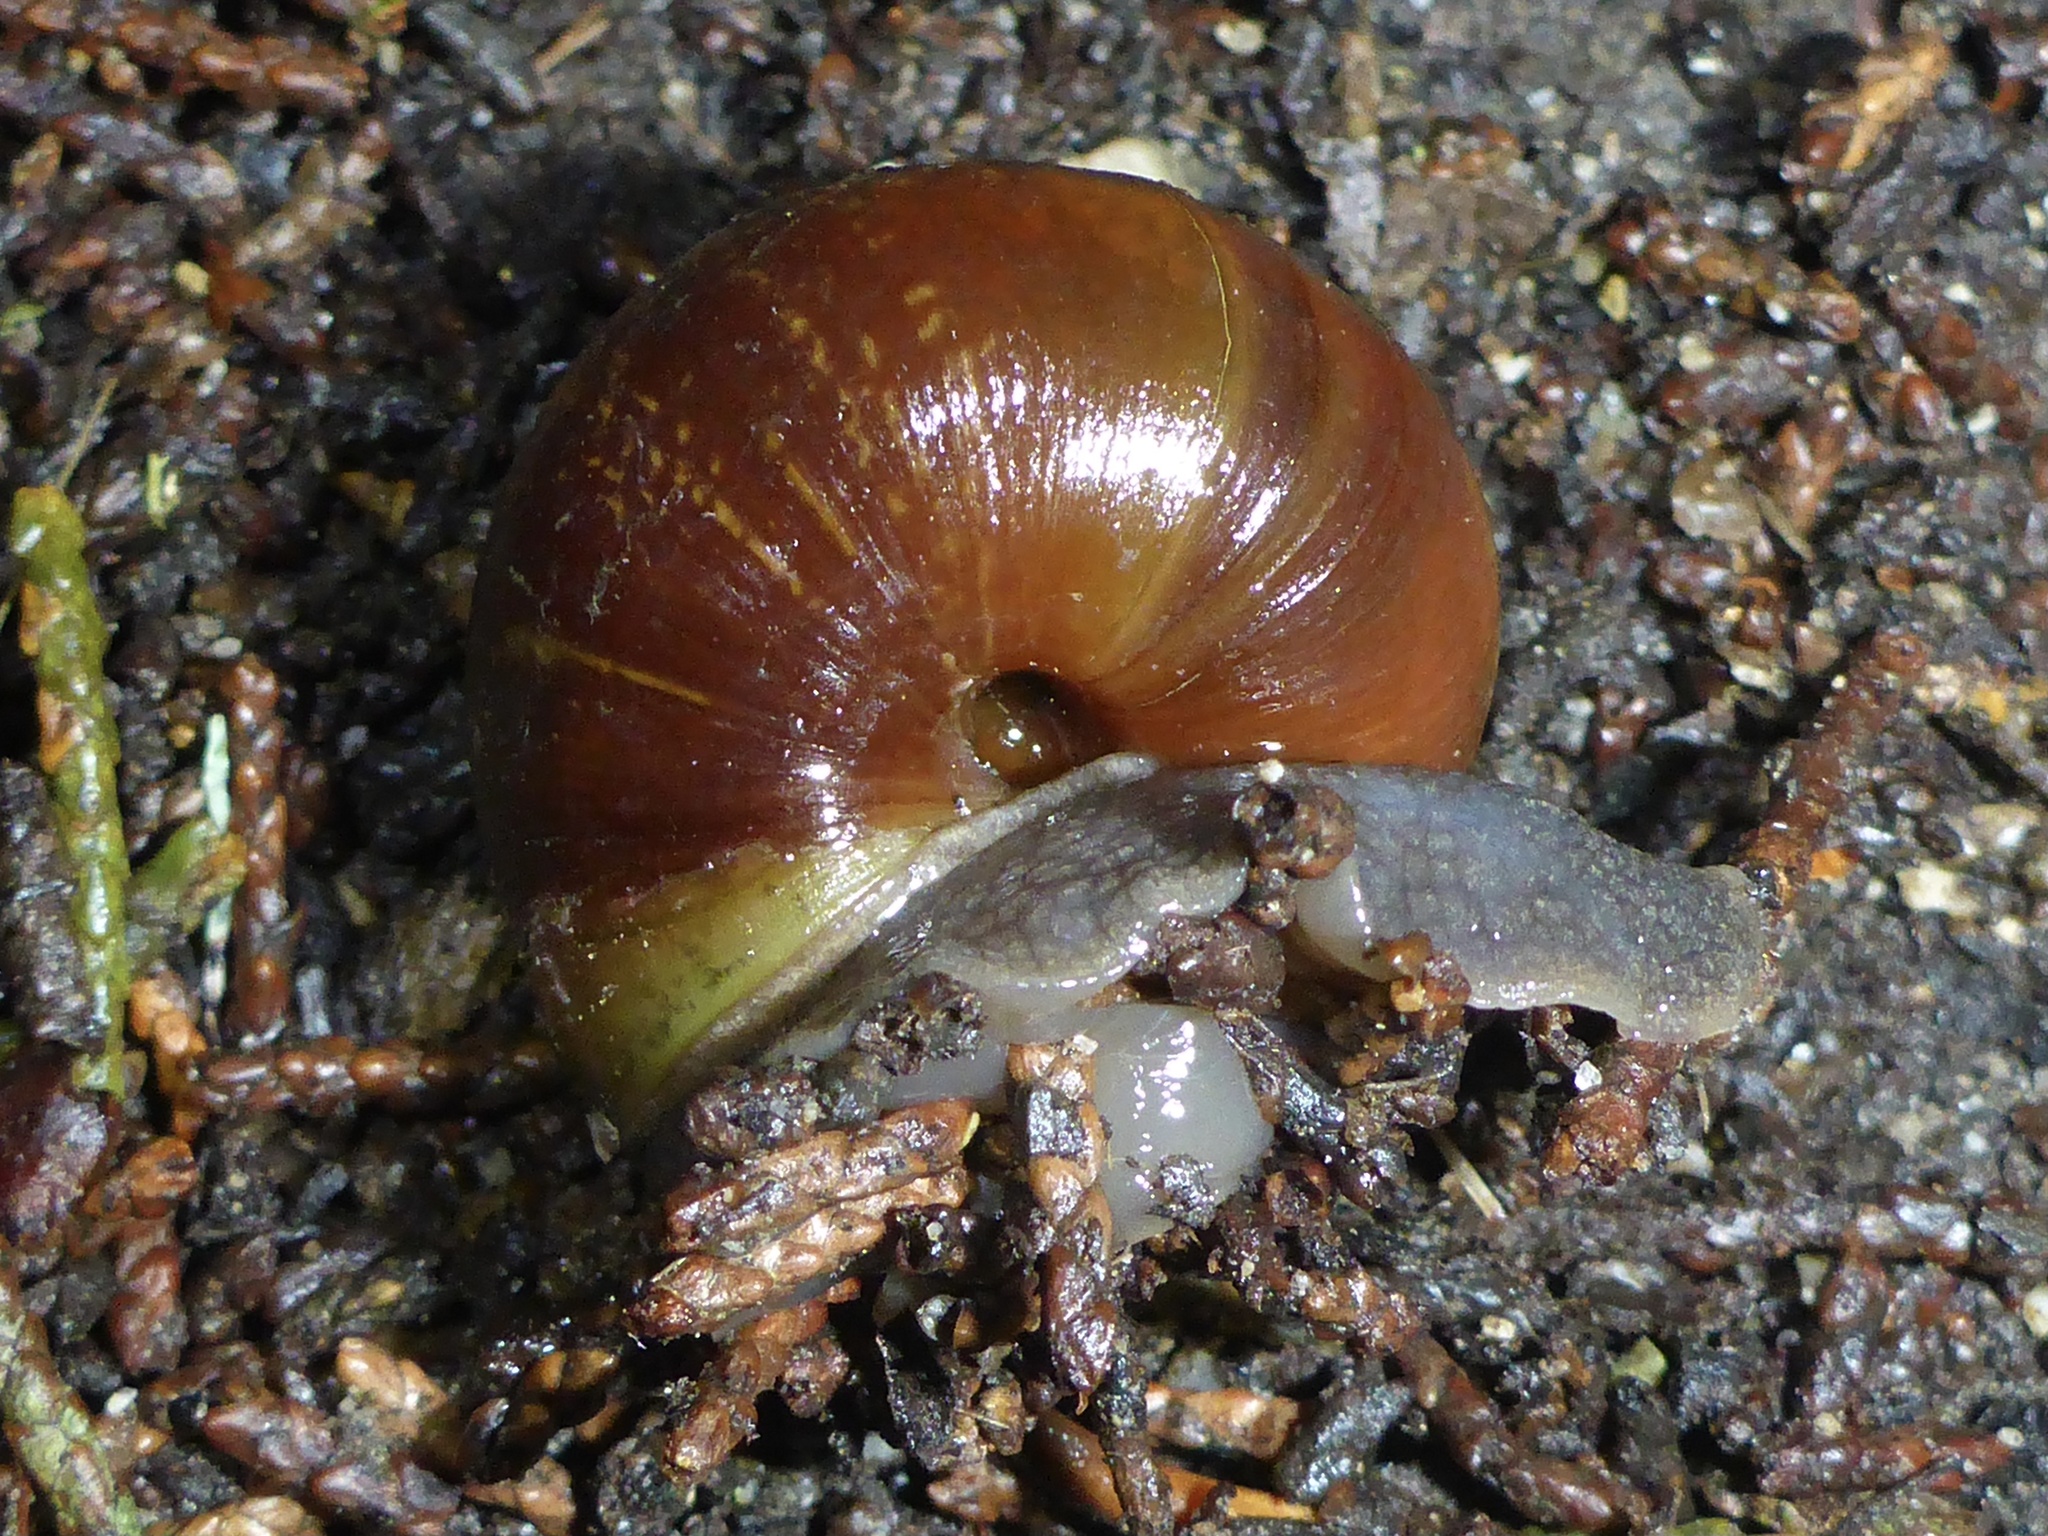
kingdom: Animalia
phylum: Mollusca
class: Gastropoda
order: Stylommatophora
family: Xanthonychidae
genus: Helminthoglypta
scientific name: Helminthoglypta arrosa
